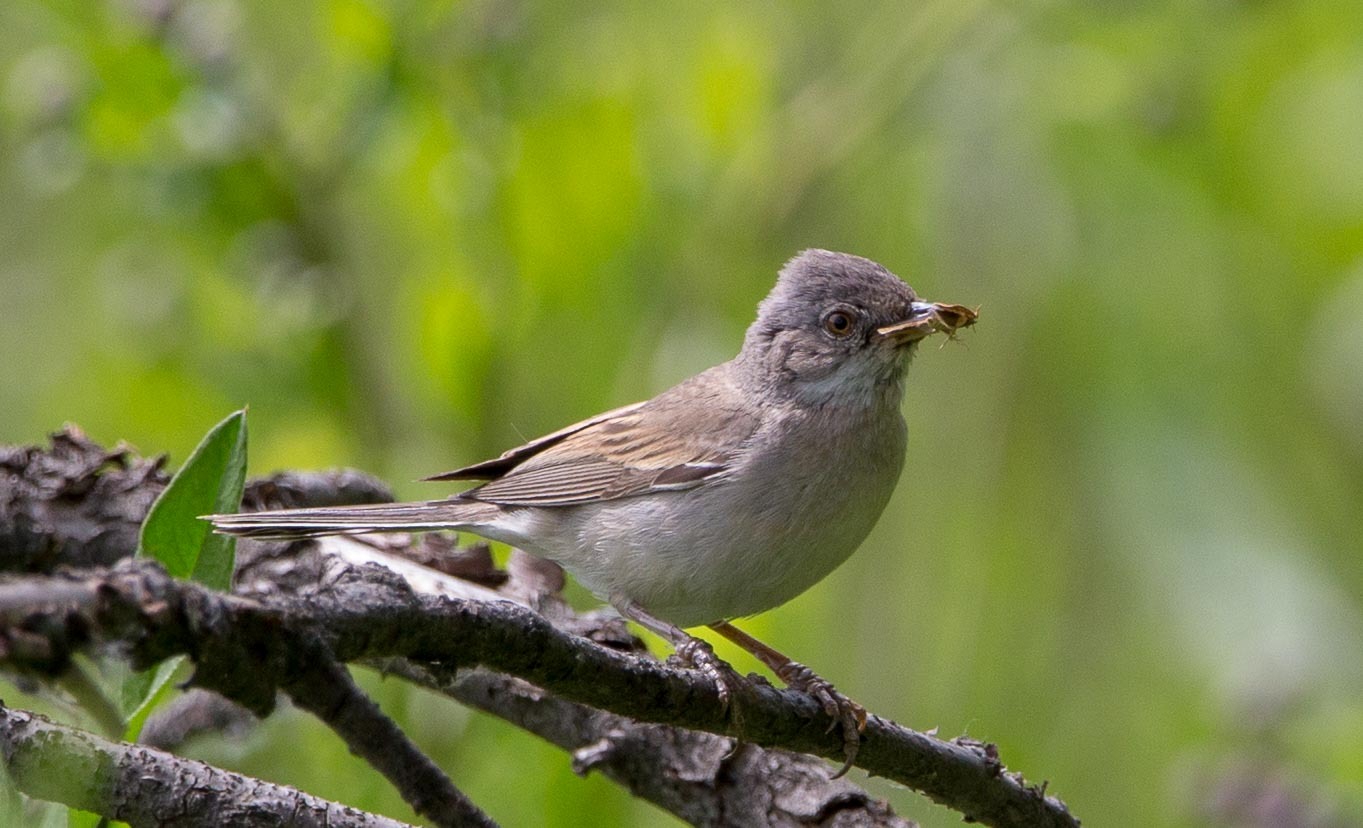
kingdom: Animalia
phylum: Chordata
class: Aves
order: Passeriformes
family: Sylviidae
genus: Sylvia
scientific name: Sylvia communis
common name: Common whitethroat
